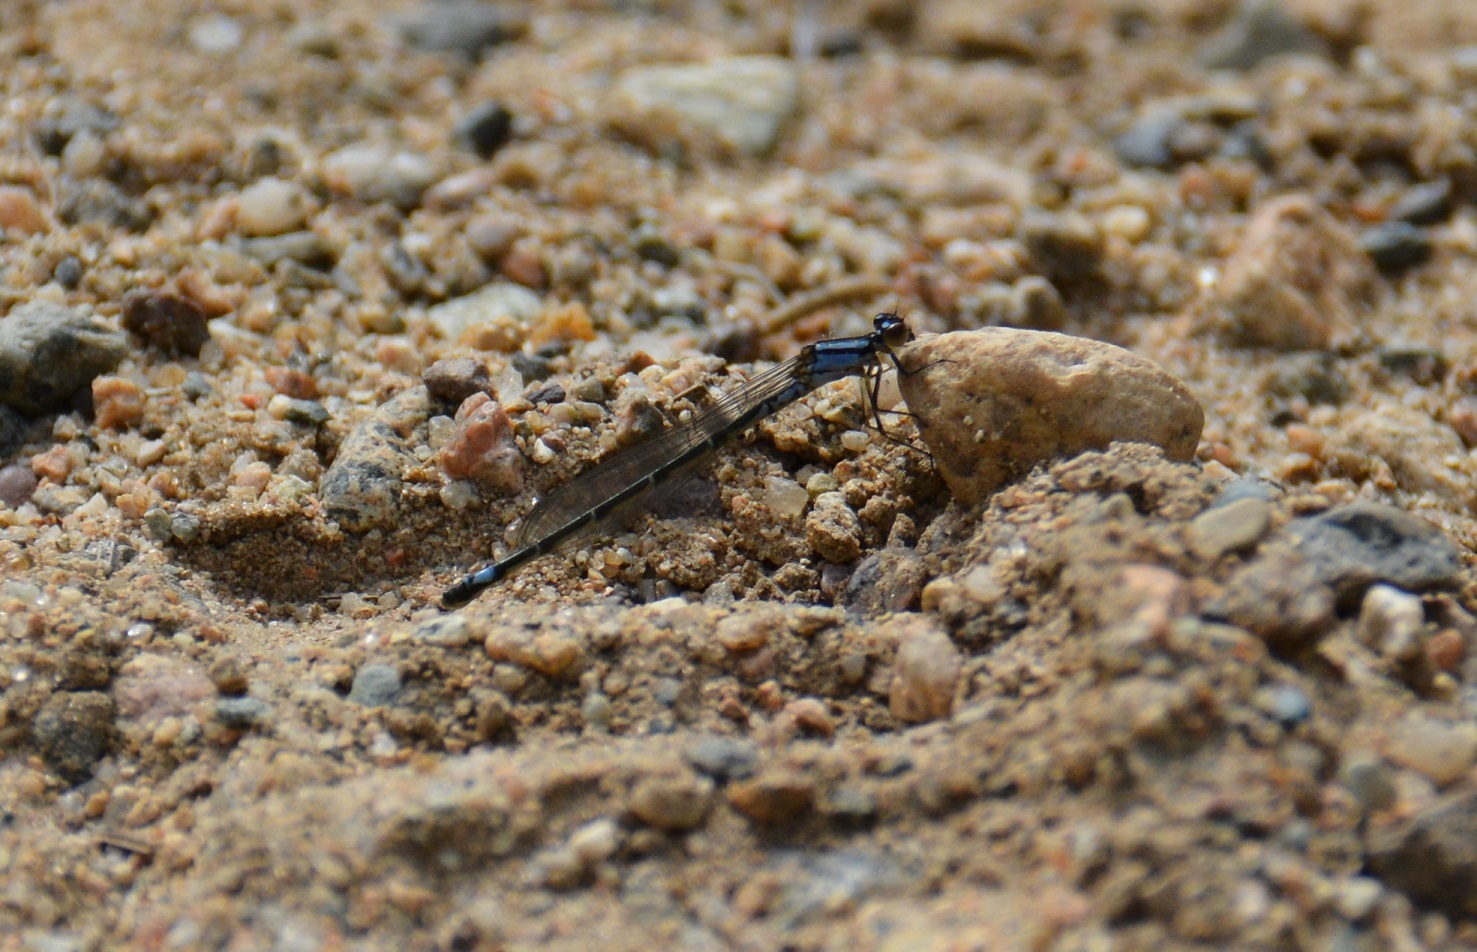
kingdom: Animalia
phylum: Arthropoda
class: Insecta
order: Odonata
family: Coenagrionidae
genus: Enallagma
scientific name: Enallagma geminatum
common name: Skimming bluet
